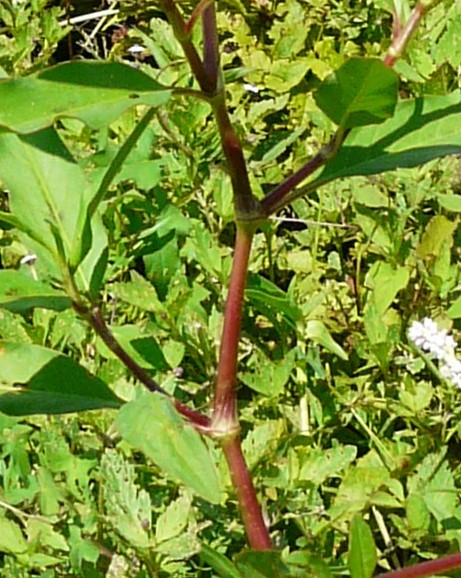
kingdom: Plantae
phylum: Tracheophyta
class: Magnoliopsida
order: Caryophyllales
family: Polygonaceae
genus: Persicaria
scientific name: Persicaria pensylvanica
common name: Pinkweed
